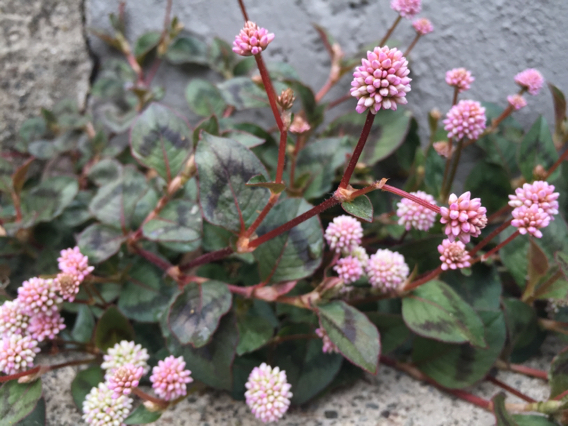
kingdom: Plantae
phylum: Tracheophyta
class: Magnoliopsida
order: Caryophyllales
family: Polygonaceae
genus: Persicaria
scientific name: Persicaria capitata
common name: Pinkhead smartweed
